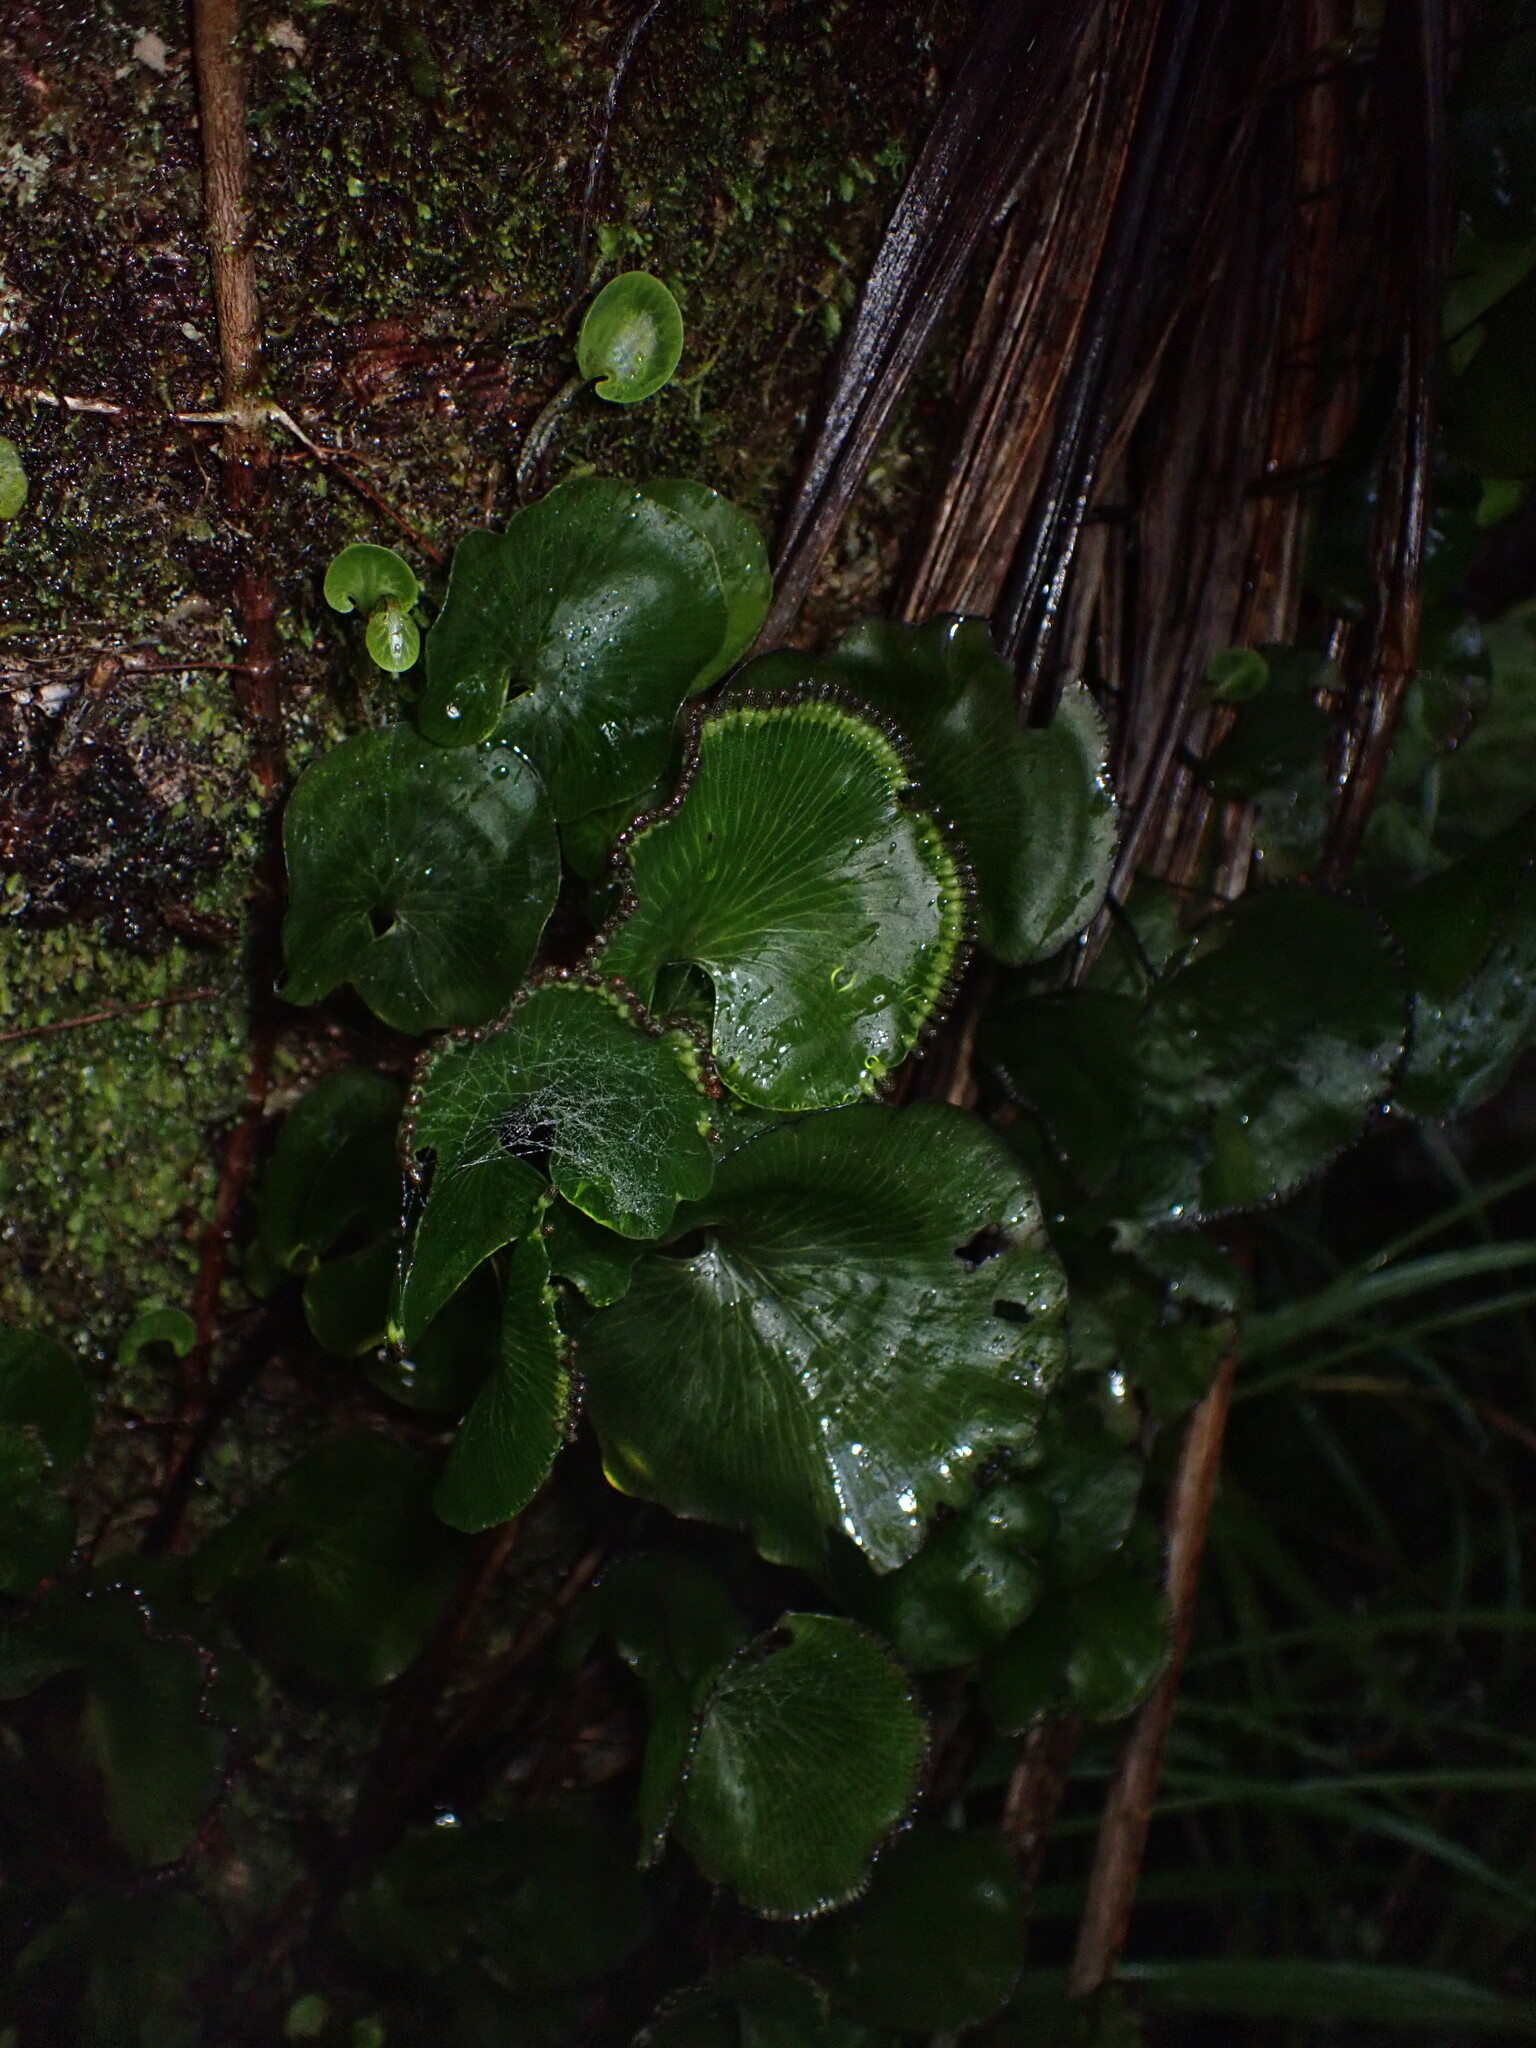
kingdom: Plantae
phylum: Tracheophyta
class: Polypodiopsida
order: Hymenophyllales
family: Hymenophyllaceae
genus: Hymenophyllum
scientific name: Hymenophyllum nephrophyllum
